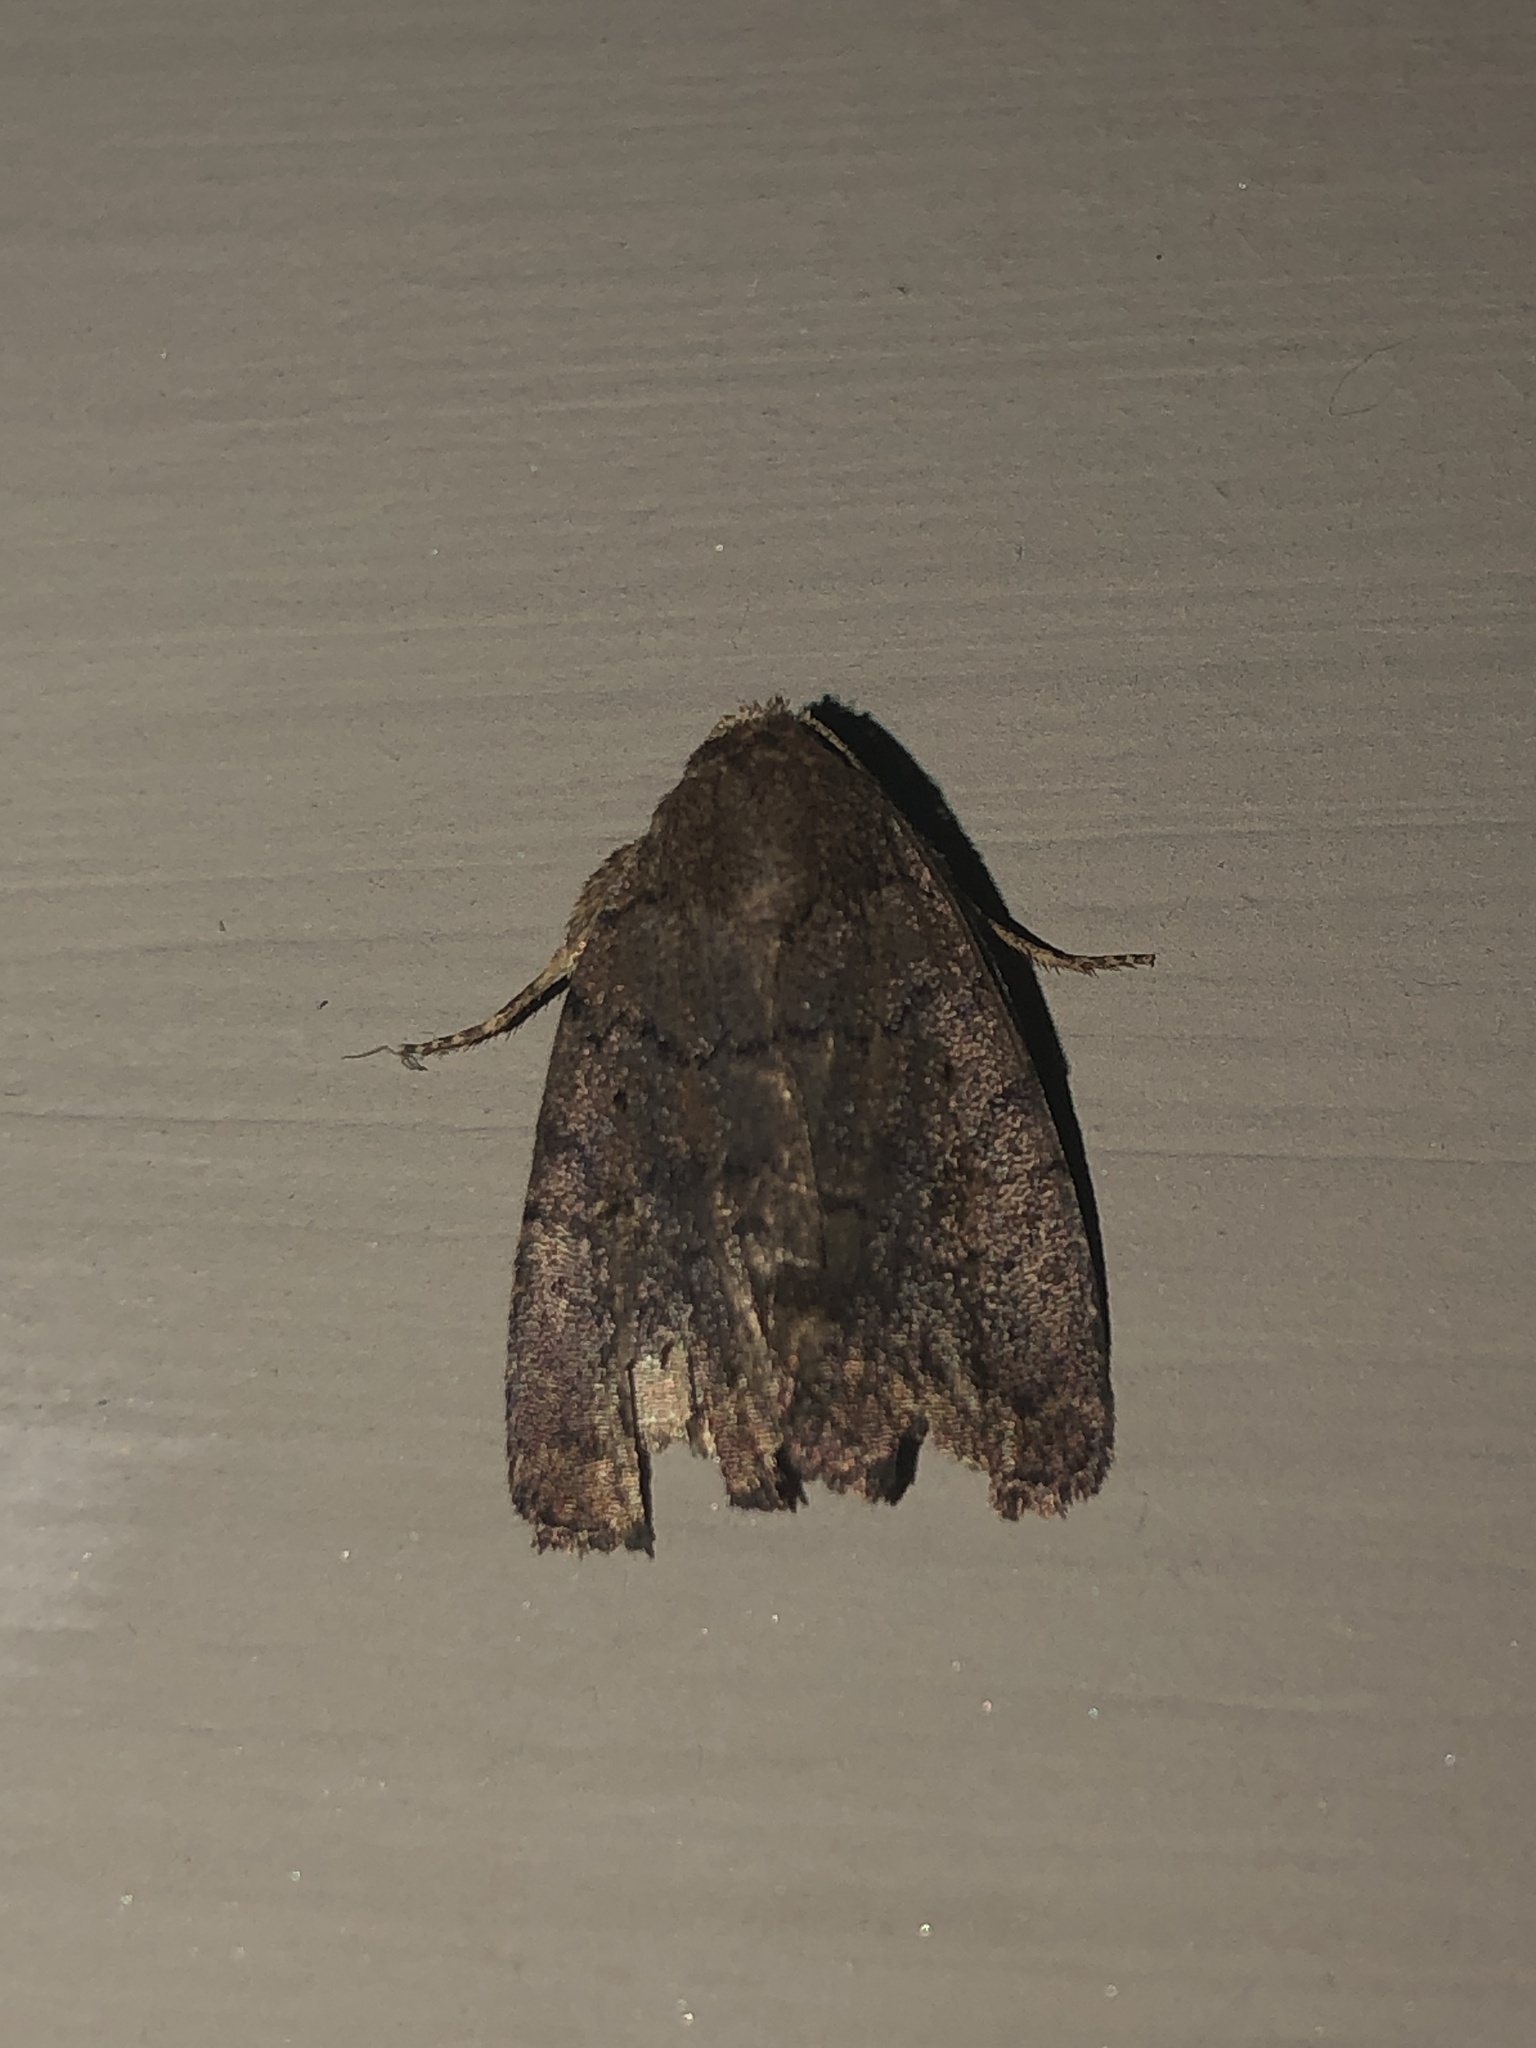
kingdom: Animalia
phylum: Arthropoda
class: Insecta
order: Lepidoptera
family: Noctuidae
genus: Athetis
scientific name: Athetis tarda
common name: Slowpoke moth
